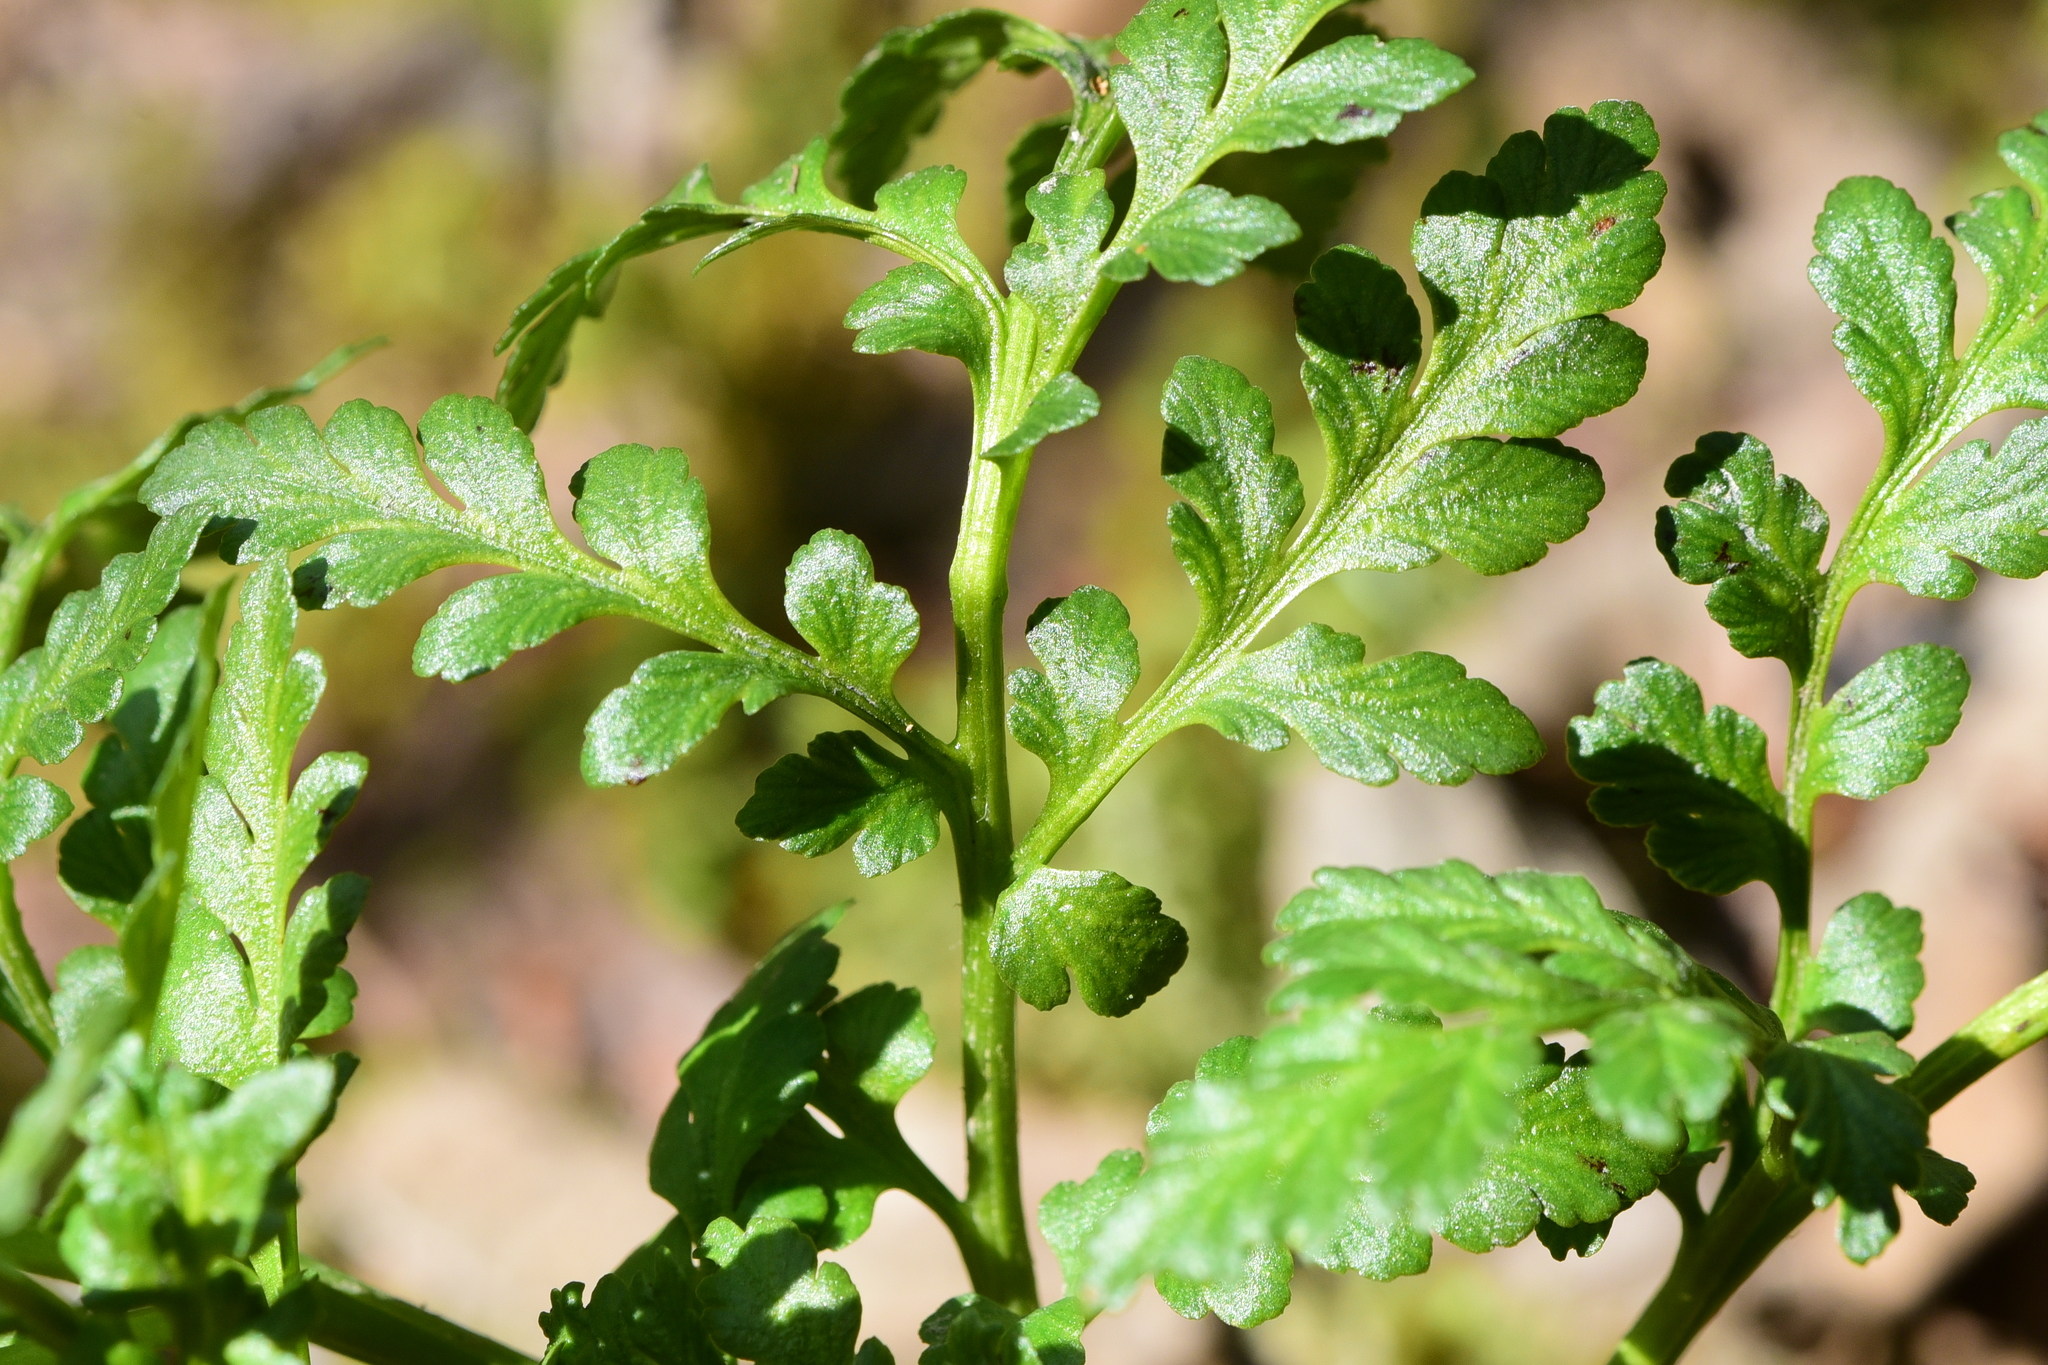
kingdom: Plantae
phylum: Tracheophyta
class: Polypodiopsida
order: Ophioglossales
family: Ophioglossaceae
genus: Sceptridium
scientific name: Sceptridium multifidum
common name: Leathery grape fern
